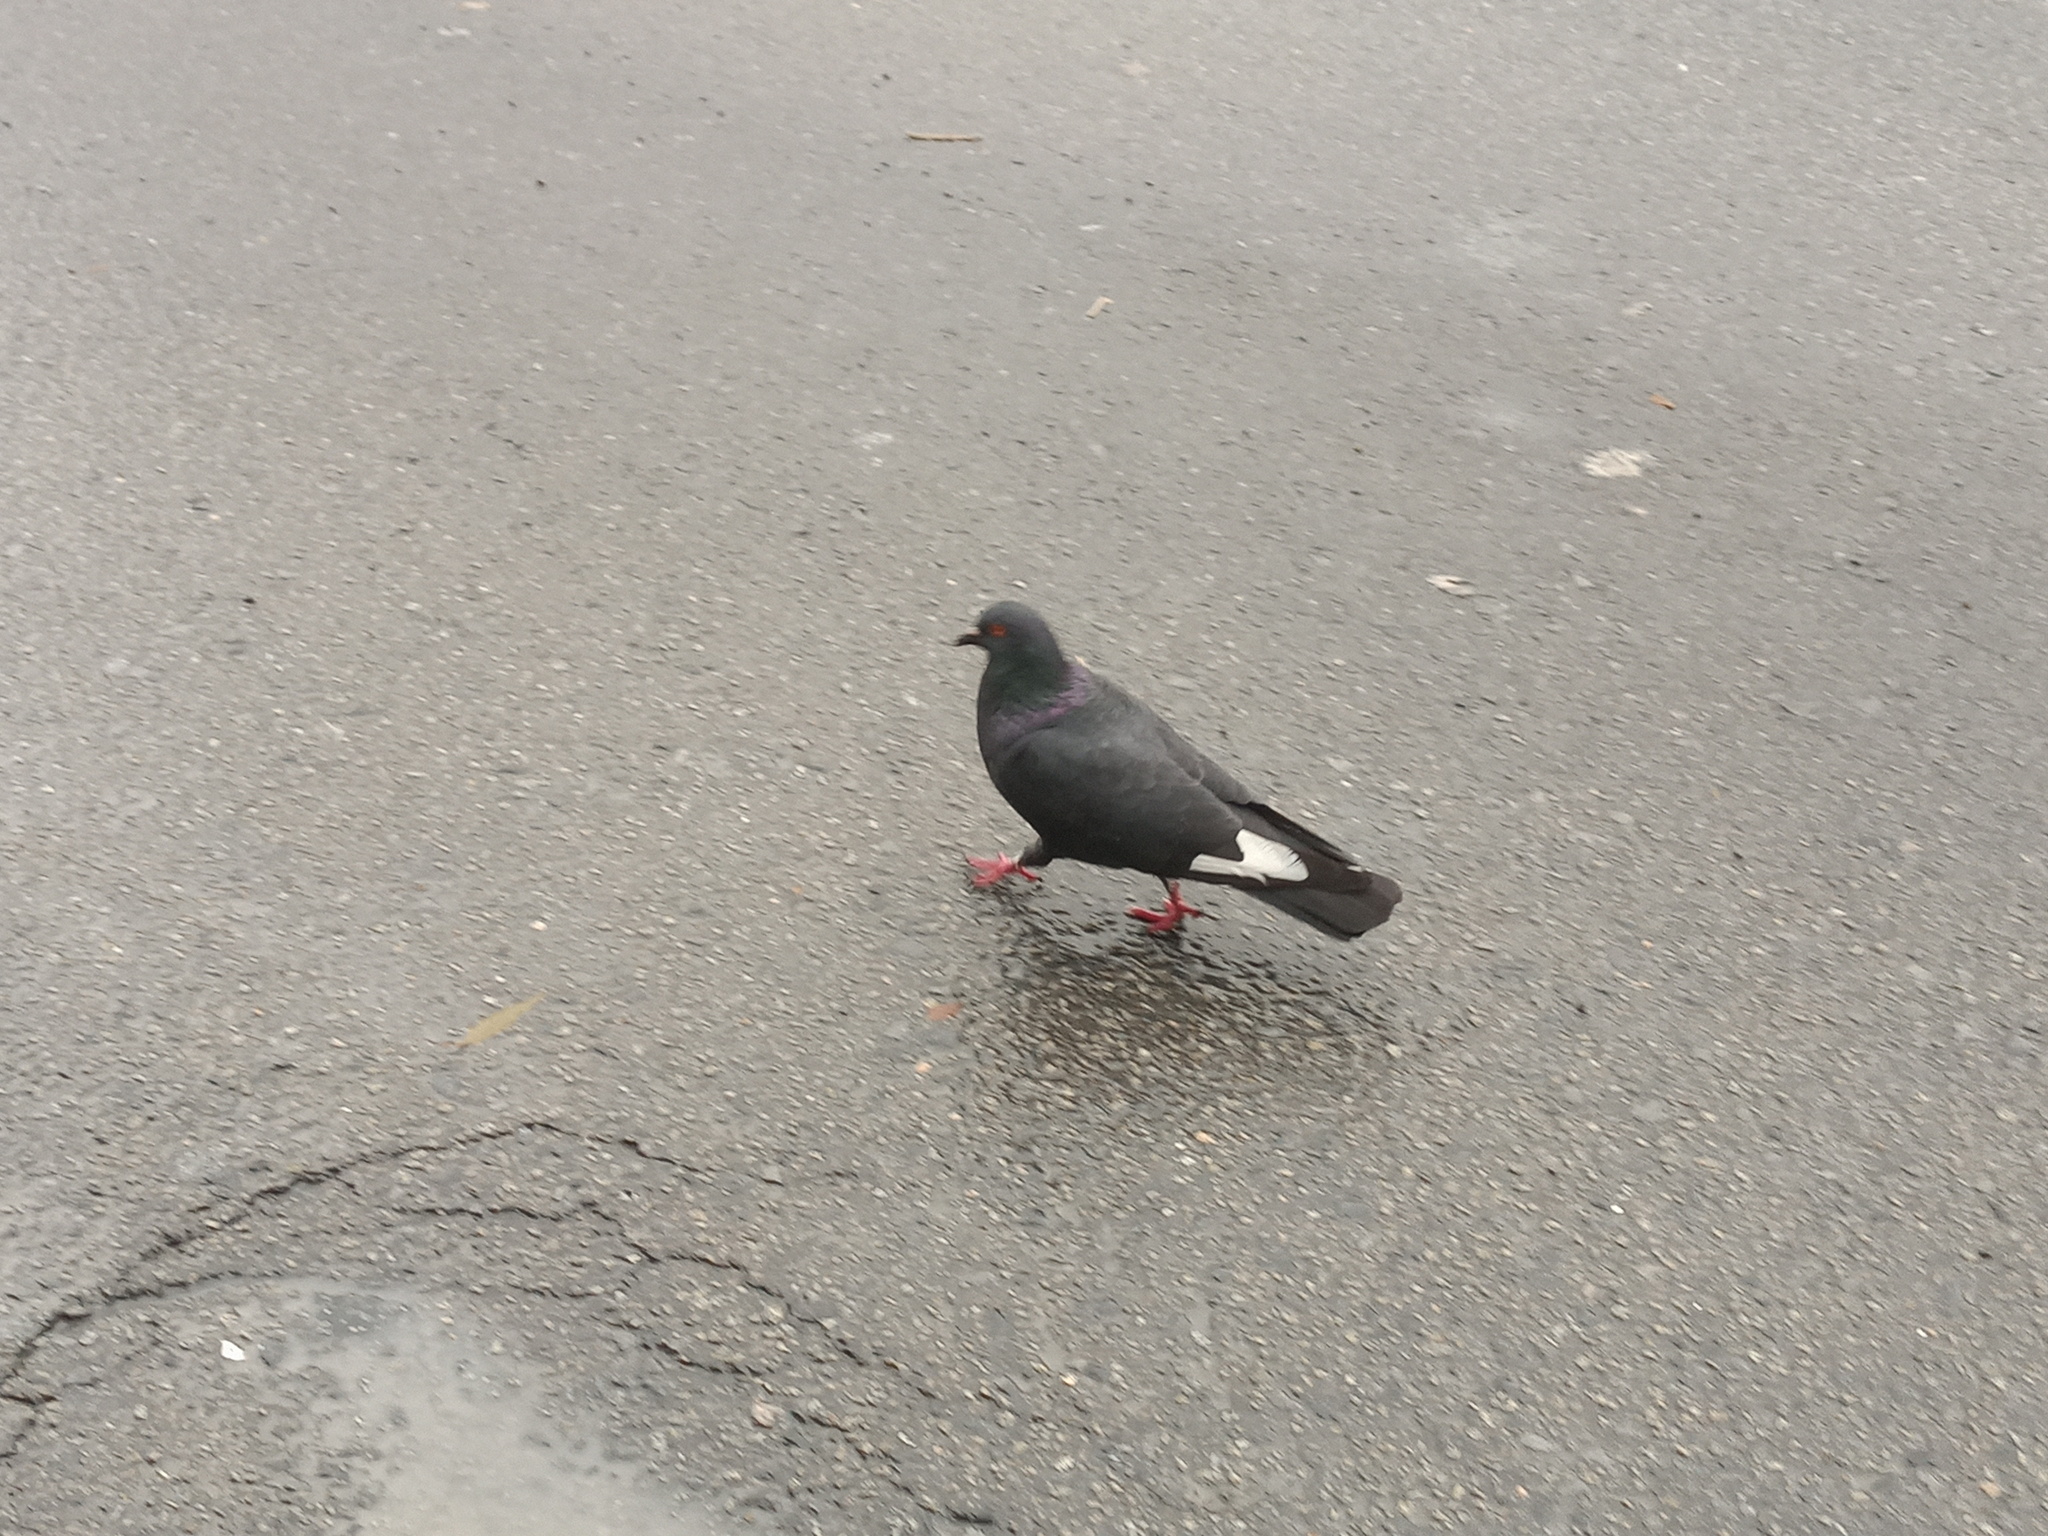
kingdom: Animalia
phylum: Chordata
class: Aves
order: Columbiformes
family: Columbidae
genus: Columba
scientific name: Columba livia
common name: Rock pigeon
